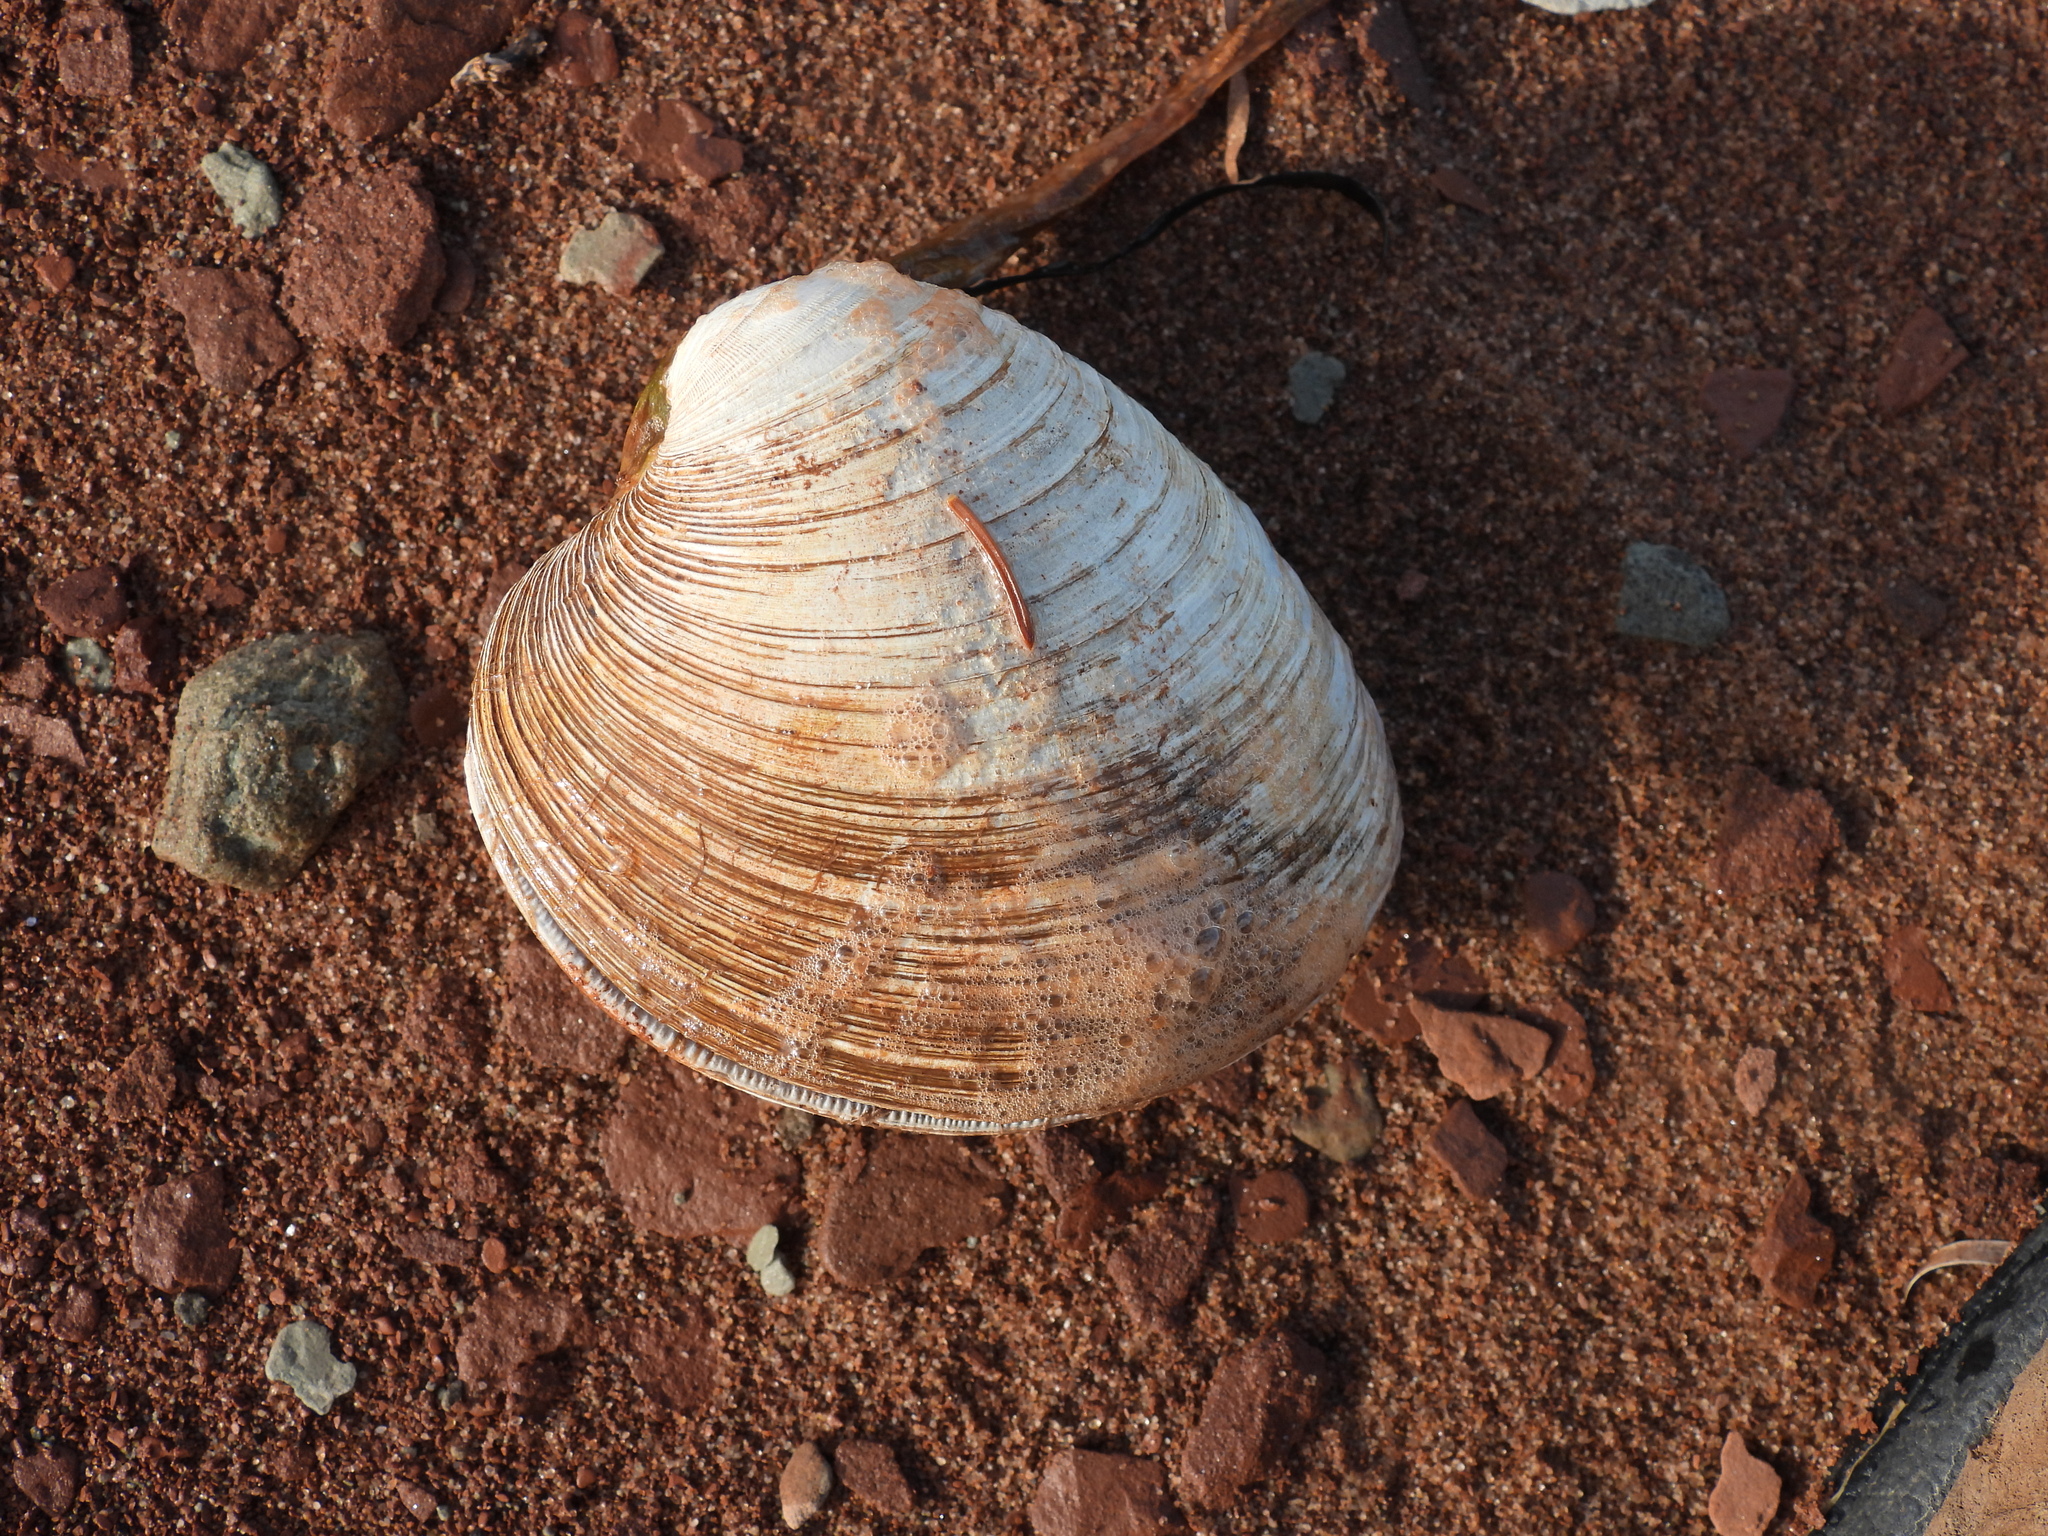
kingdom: Animalia
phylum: Mollusca
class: Bivalvia
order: Venerida
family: Veneridae
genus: Mercenaria
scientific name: Mercenaria mercenaria
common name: American hard-shelled clam
